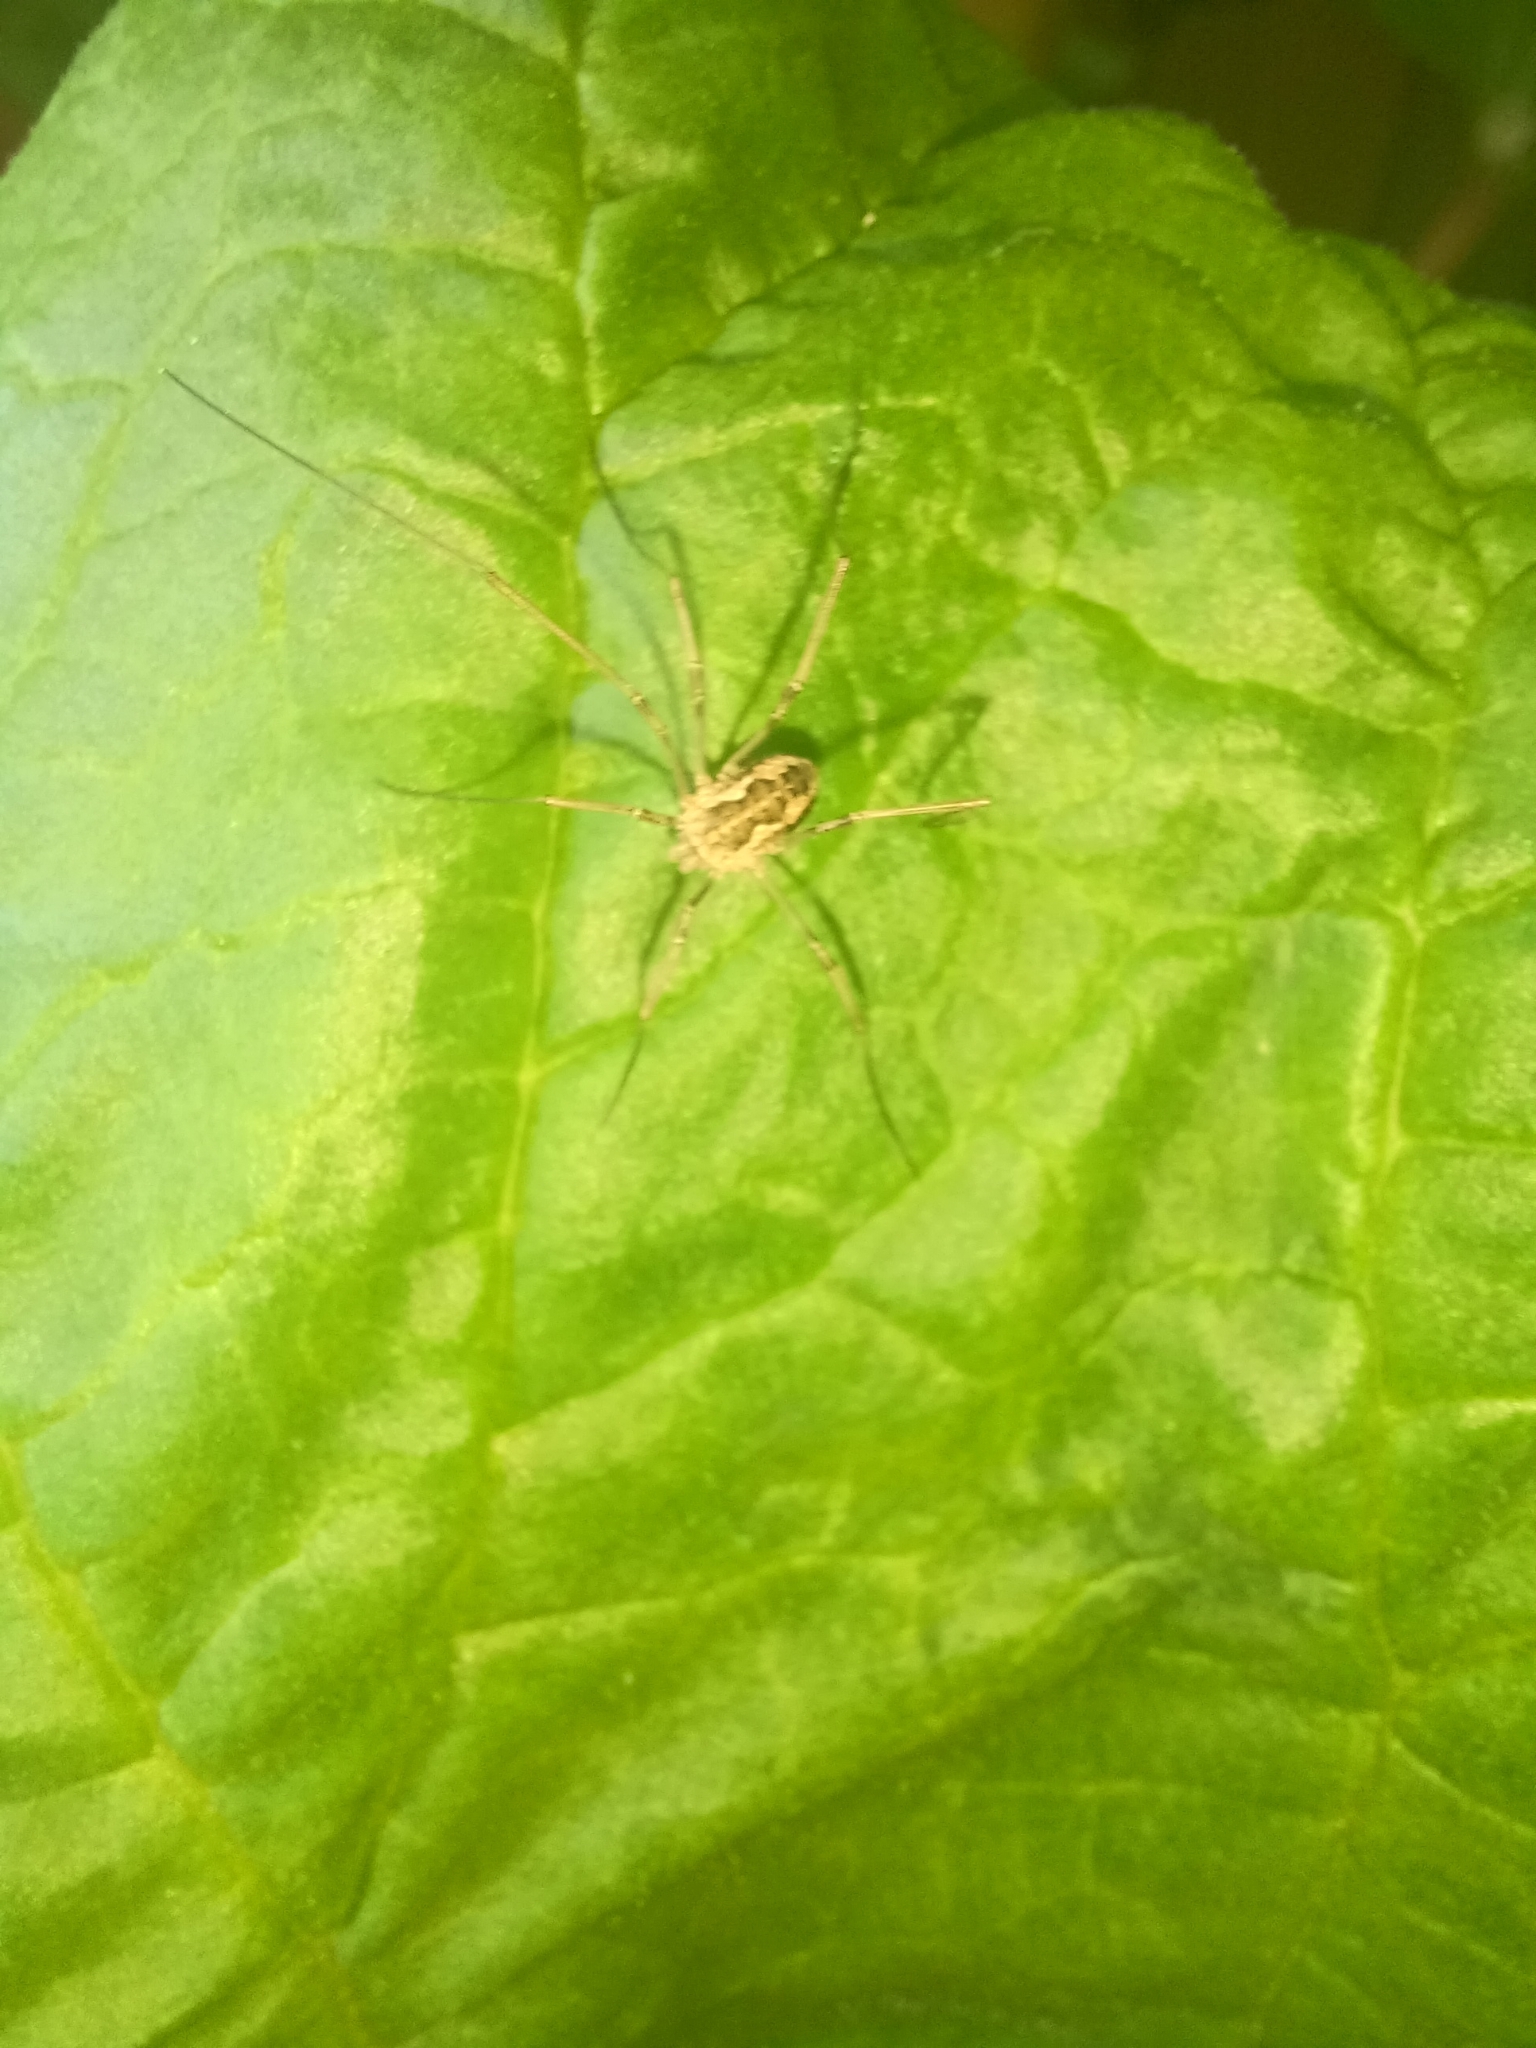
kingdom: Animalia
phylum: Arthropoda
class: Arachnida
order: Opiliones
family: Phalangiidae
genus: Phalangium
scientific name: Phalangium opilio
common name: Daddy longleg
